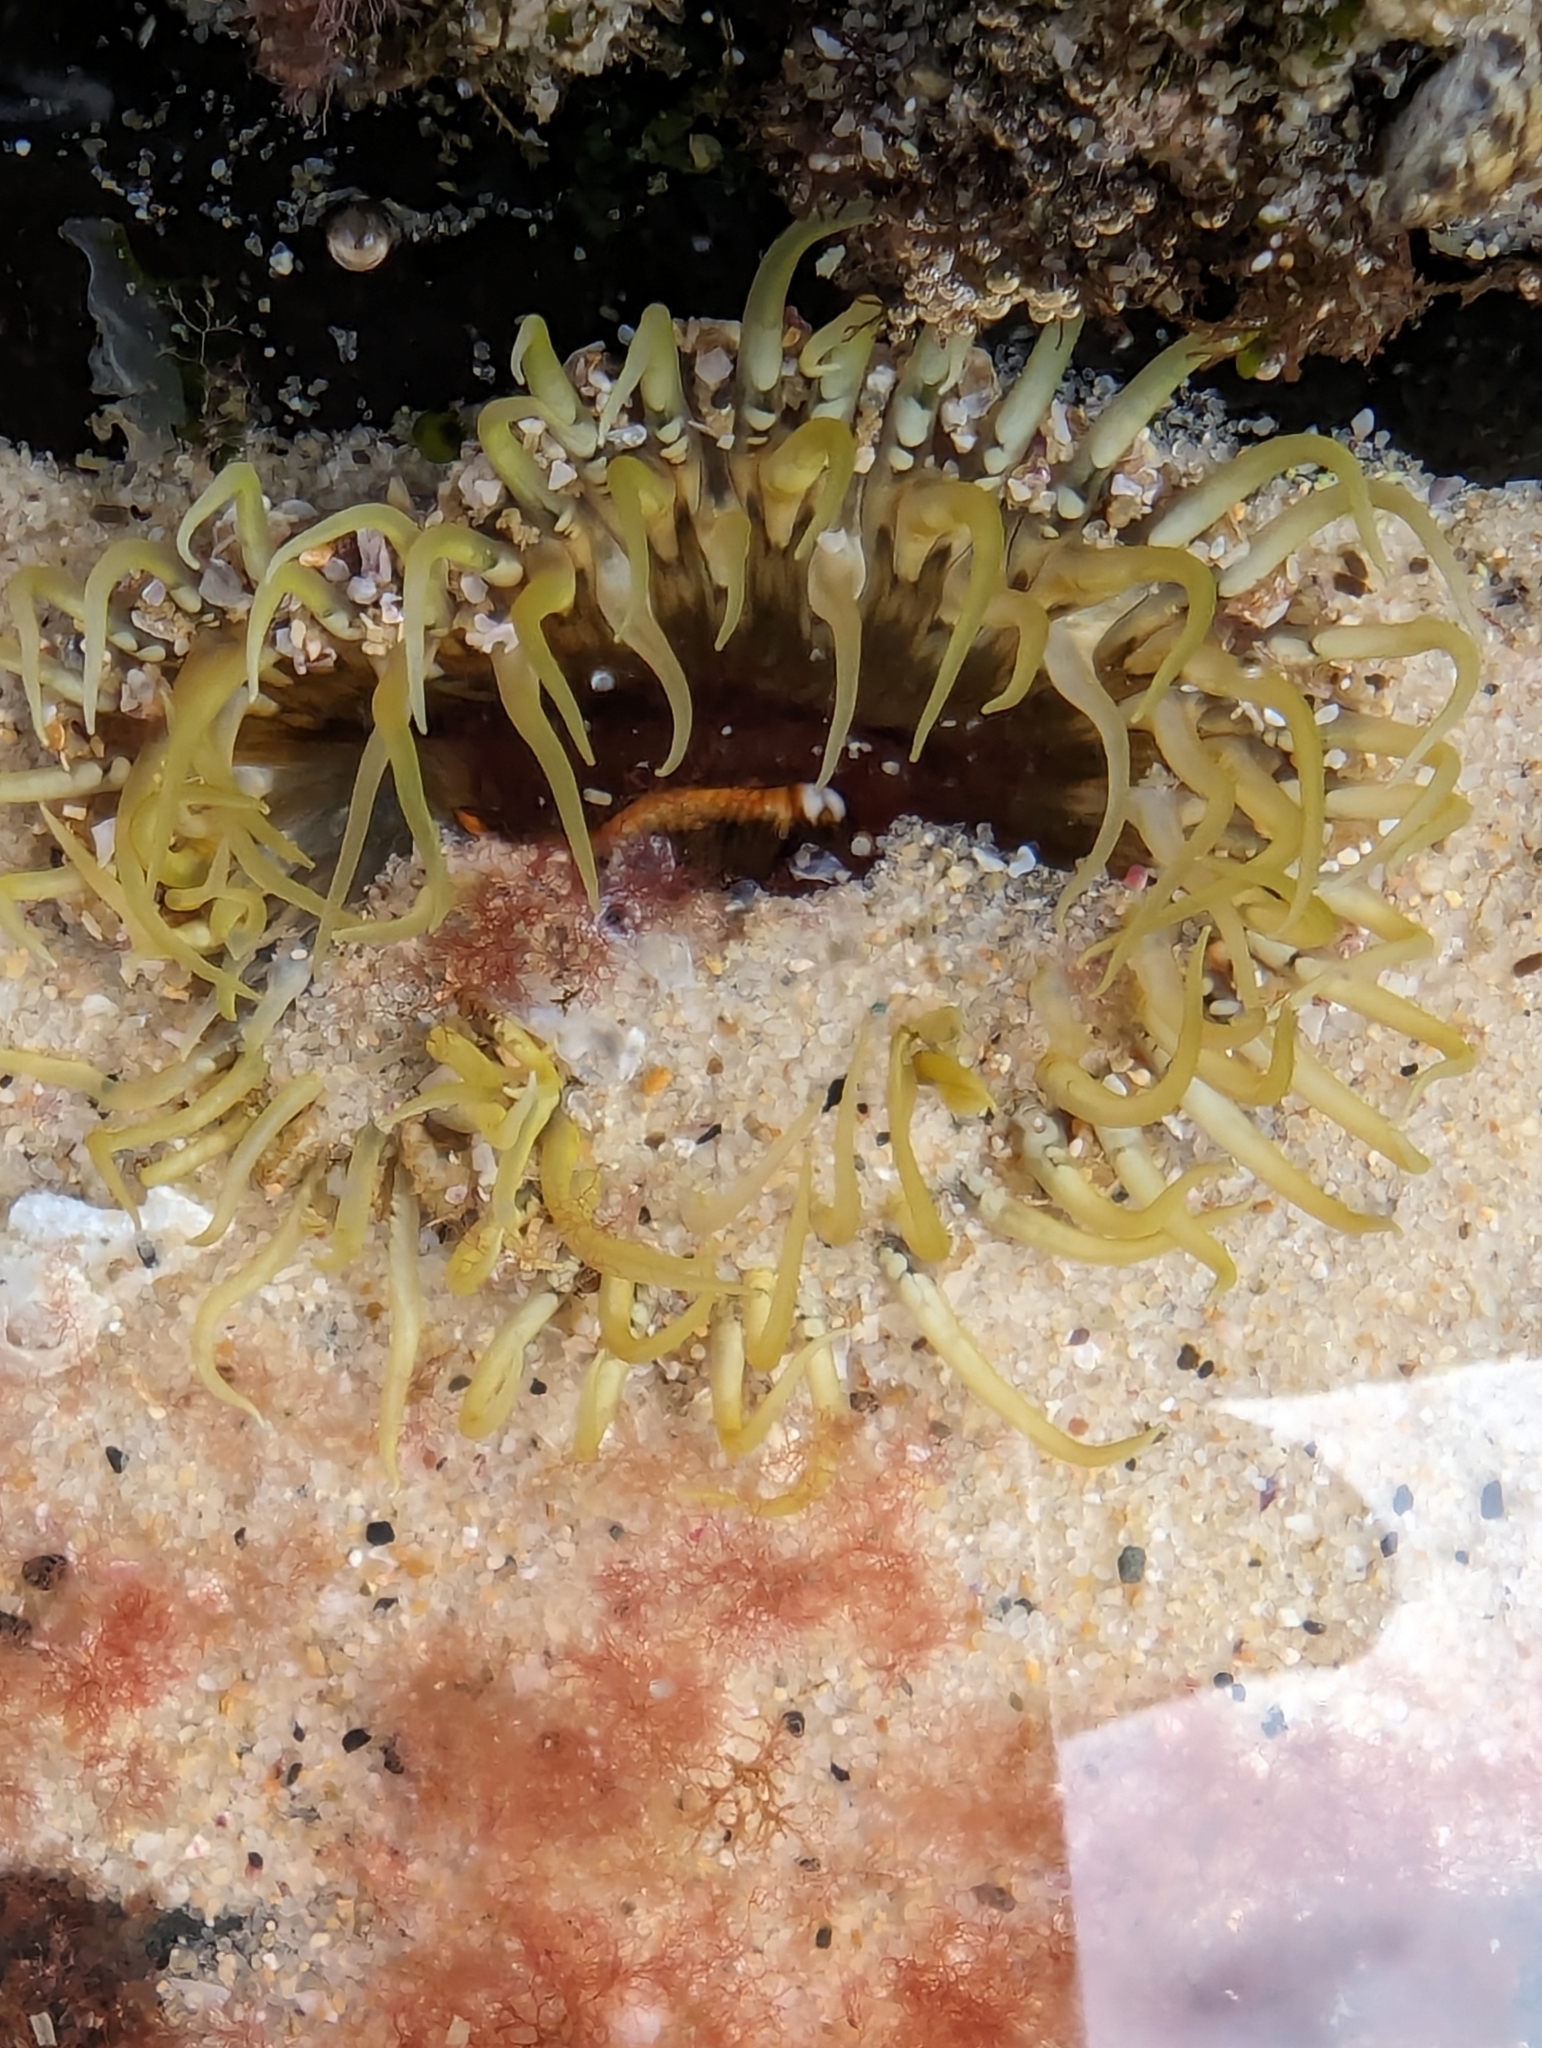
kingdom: Animalia
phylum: Cnidaria
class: Anthozoa
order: Actiniaria
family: Actiniidae
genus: Oulactis
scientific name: Oulactis muscosa
